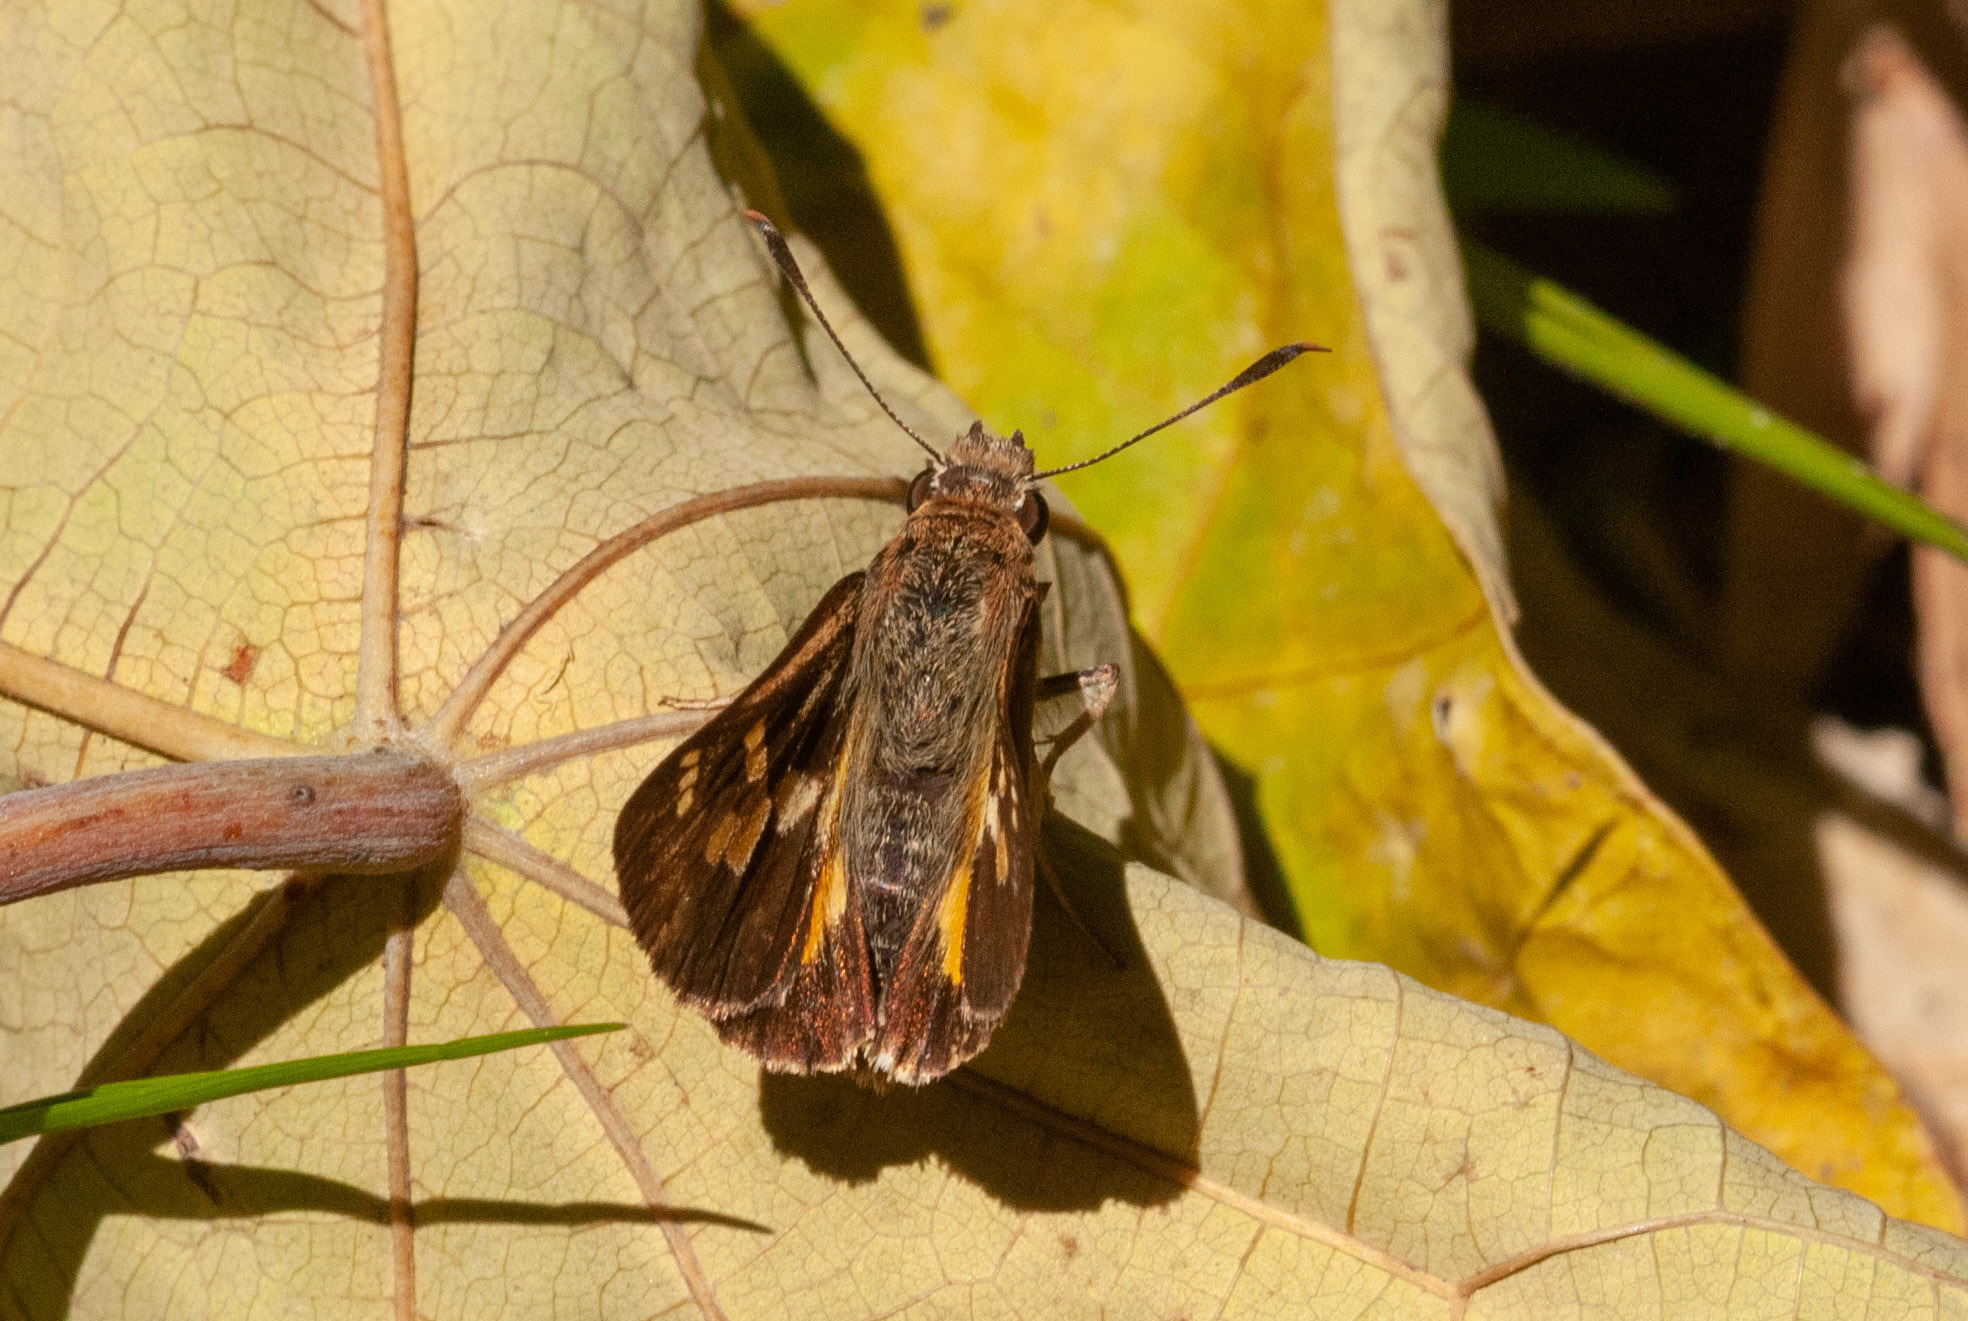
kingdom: Animalia
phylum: Arthropoda
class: Insecta
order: Lepidoptera
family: Hesperiidae
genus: Trapezites
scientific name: Trapezites maheta
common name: Northern silver ochre
